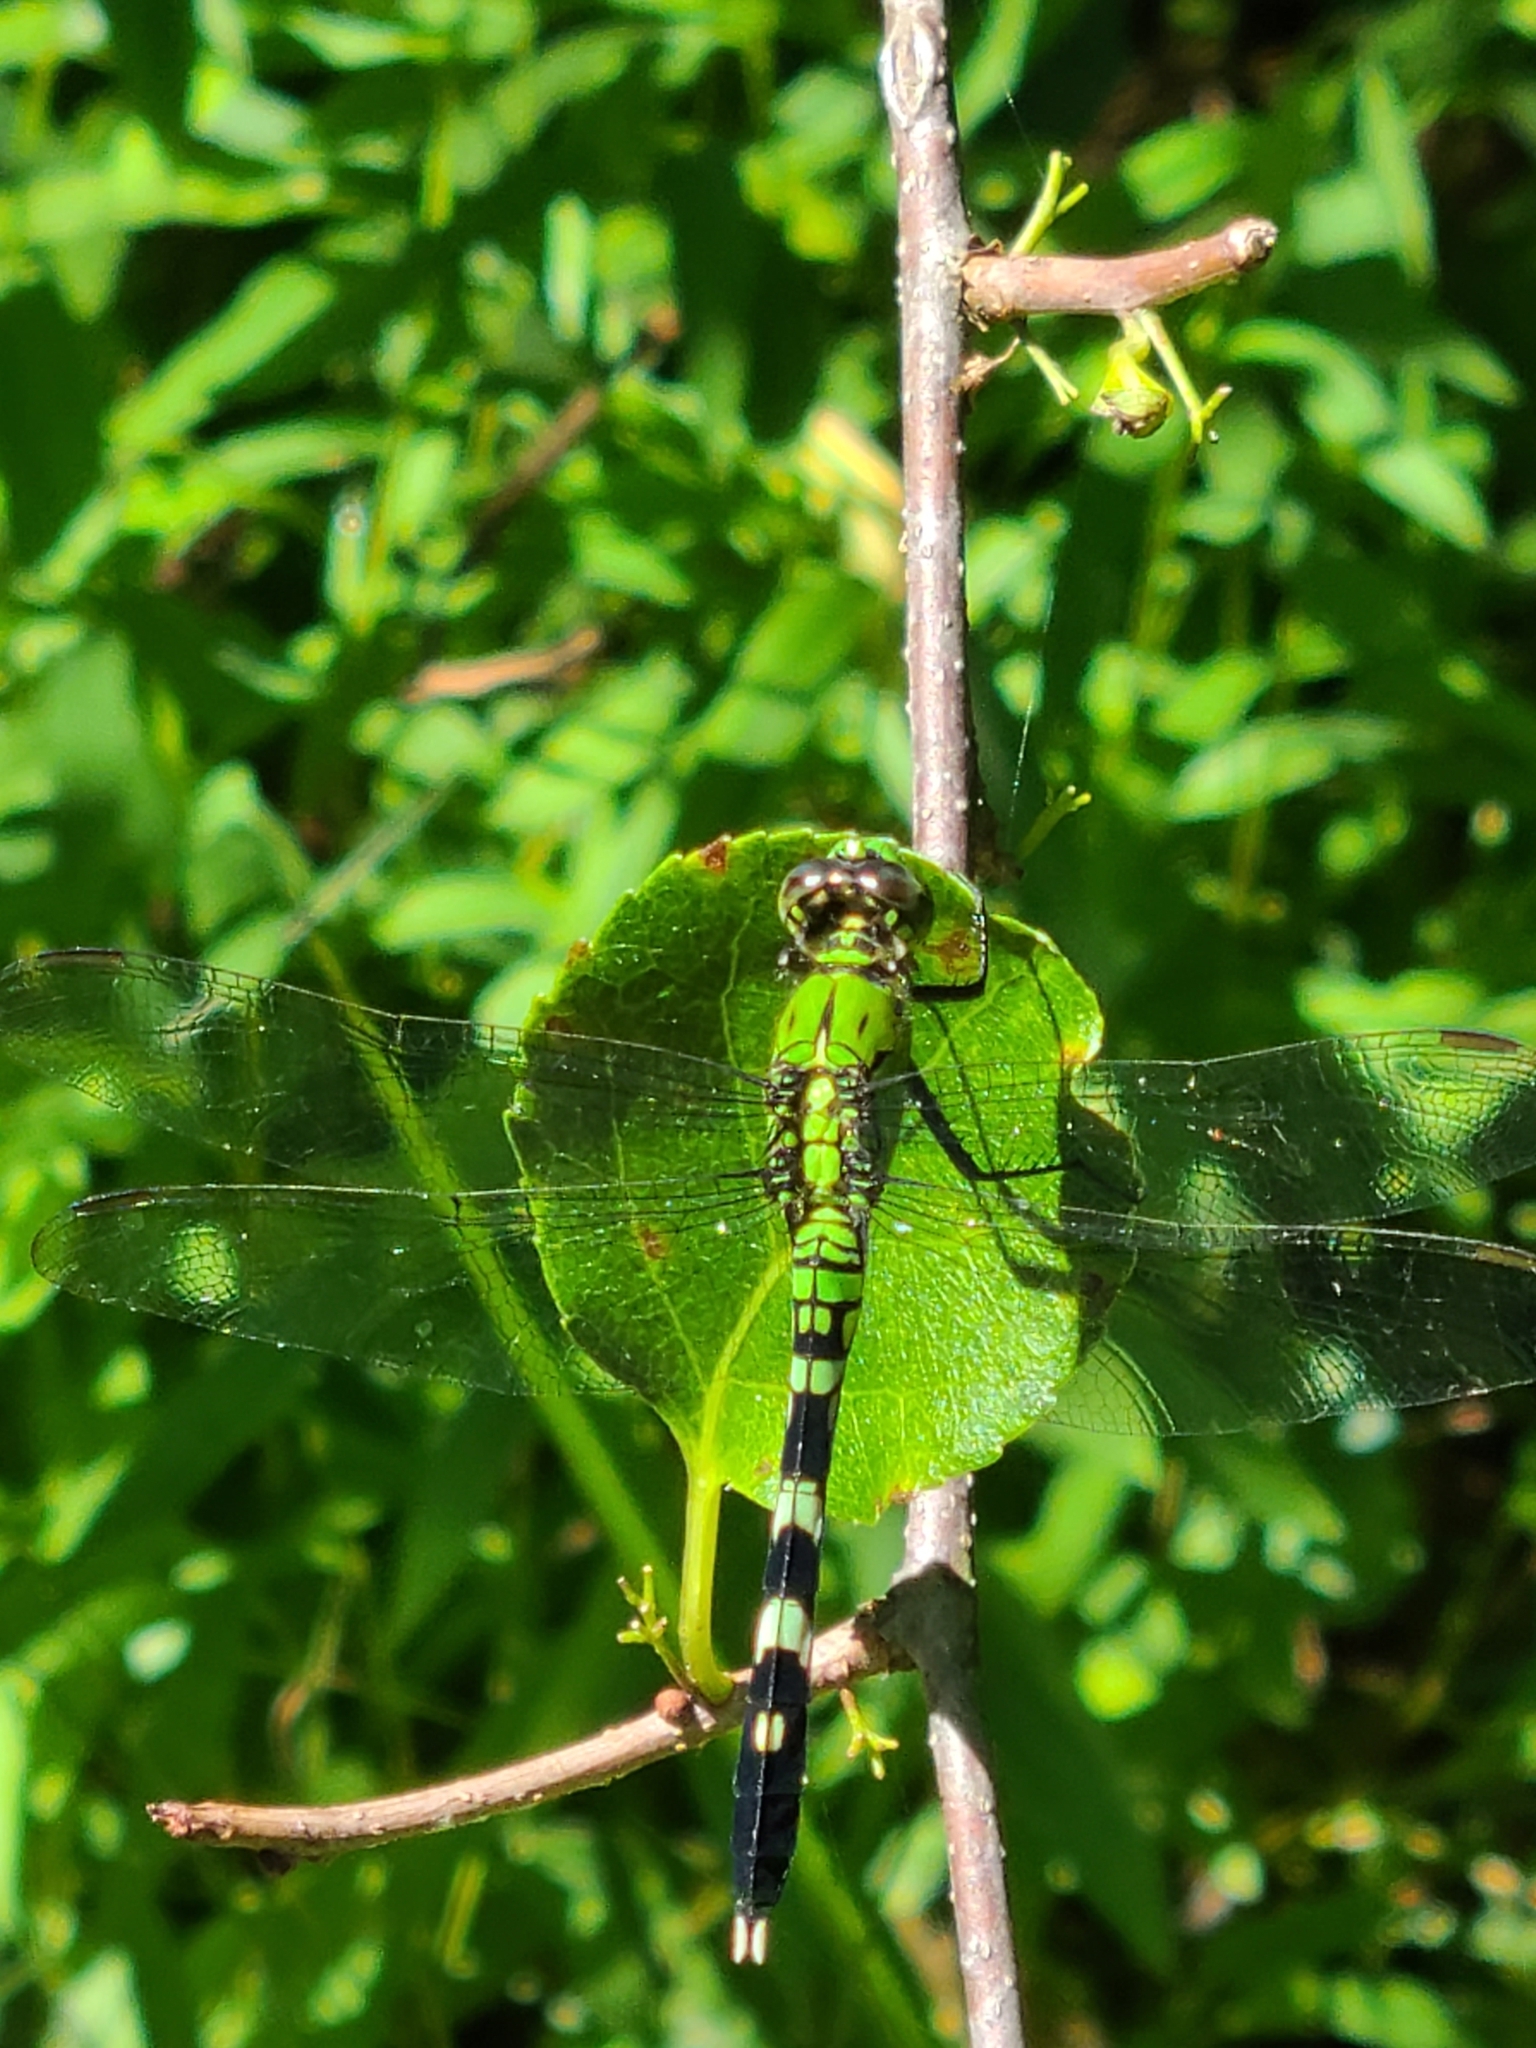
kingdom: Animalia
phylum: Arthropoda
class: Insecta
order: Odonata
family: Libellulidae
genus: Erythemis
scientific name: Erythemis simplicicollis
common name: Eastern pondhawk
